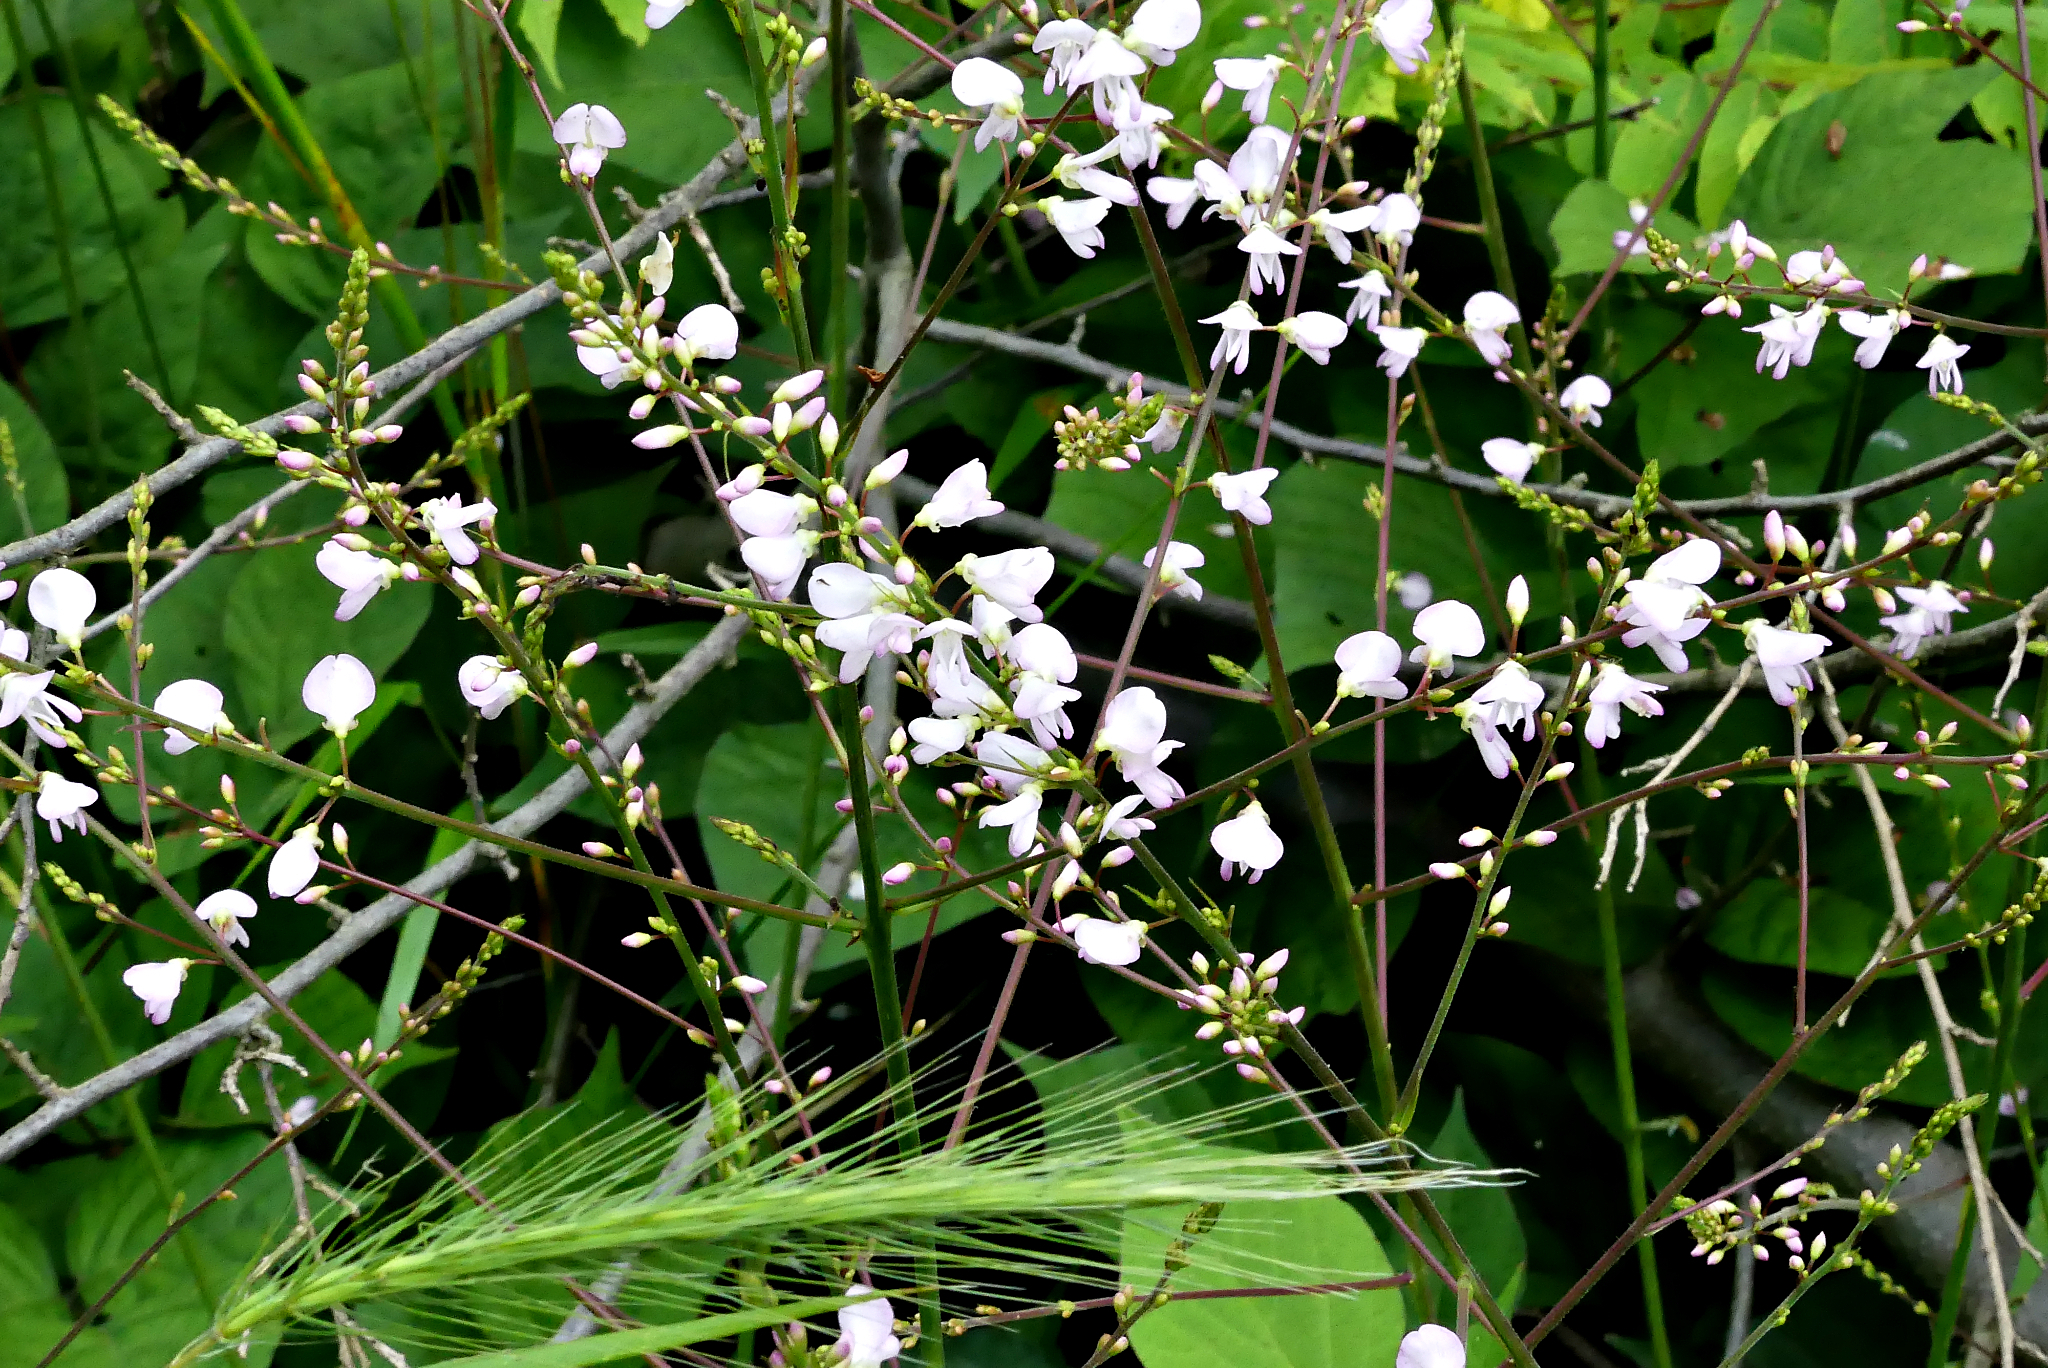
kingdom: Plantae
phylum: Tracheophyta
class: Magnoliopsida
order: Fabales
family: Fabaceae
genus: Hylodesmum
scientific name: Hylodesmum glutinosum
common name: Clustered-leaved tick-trefoil
